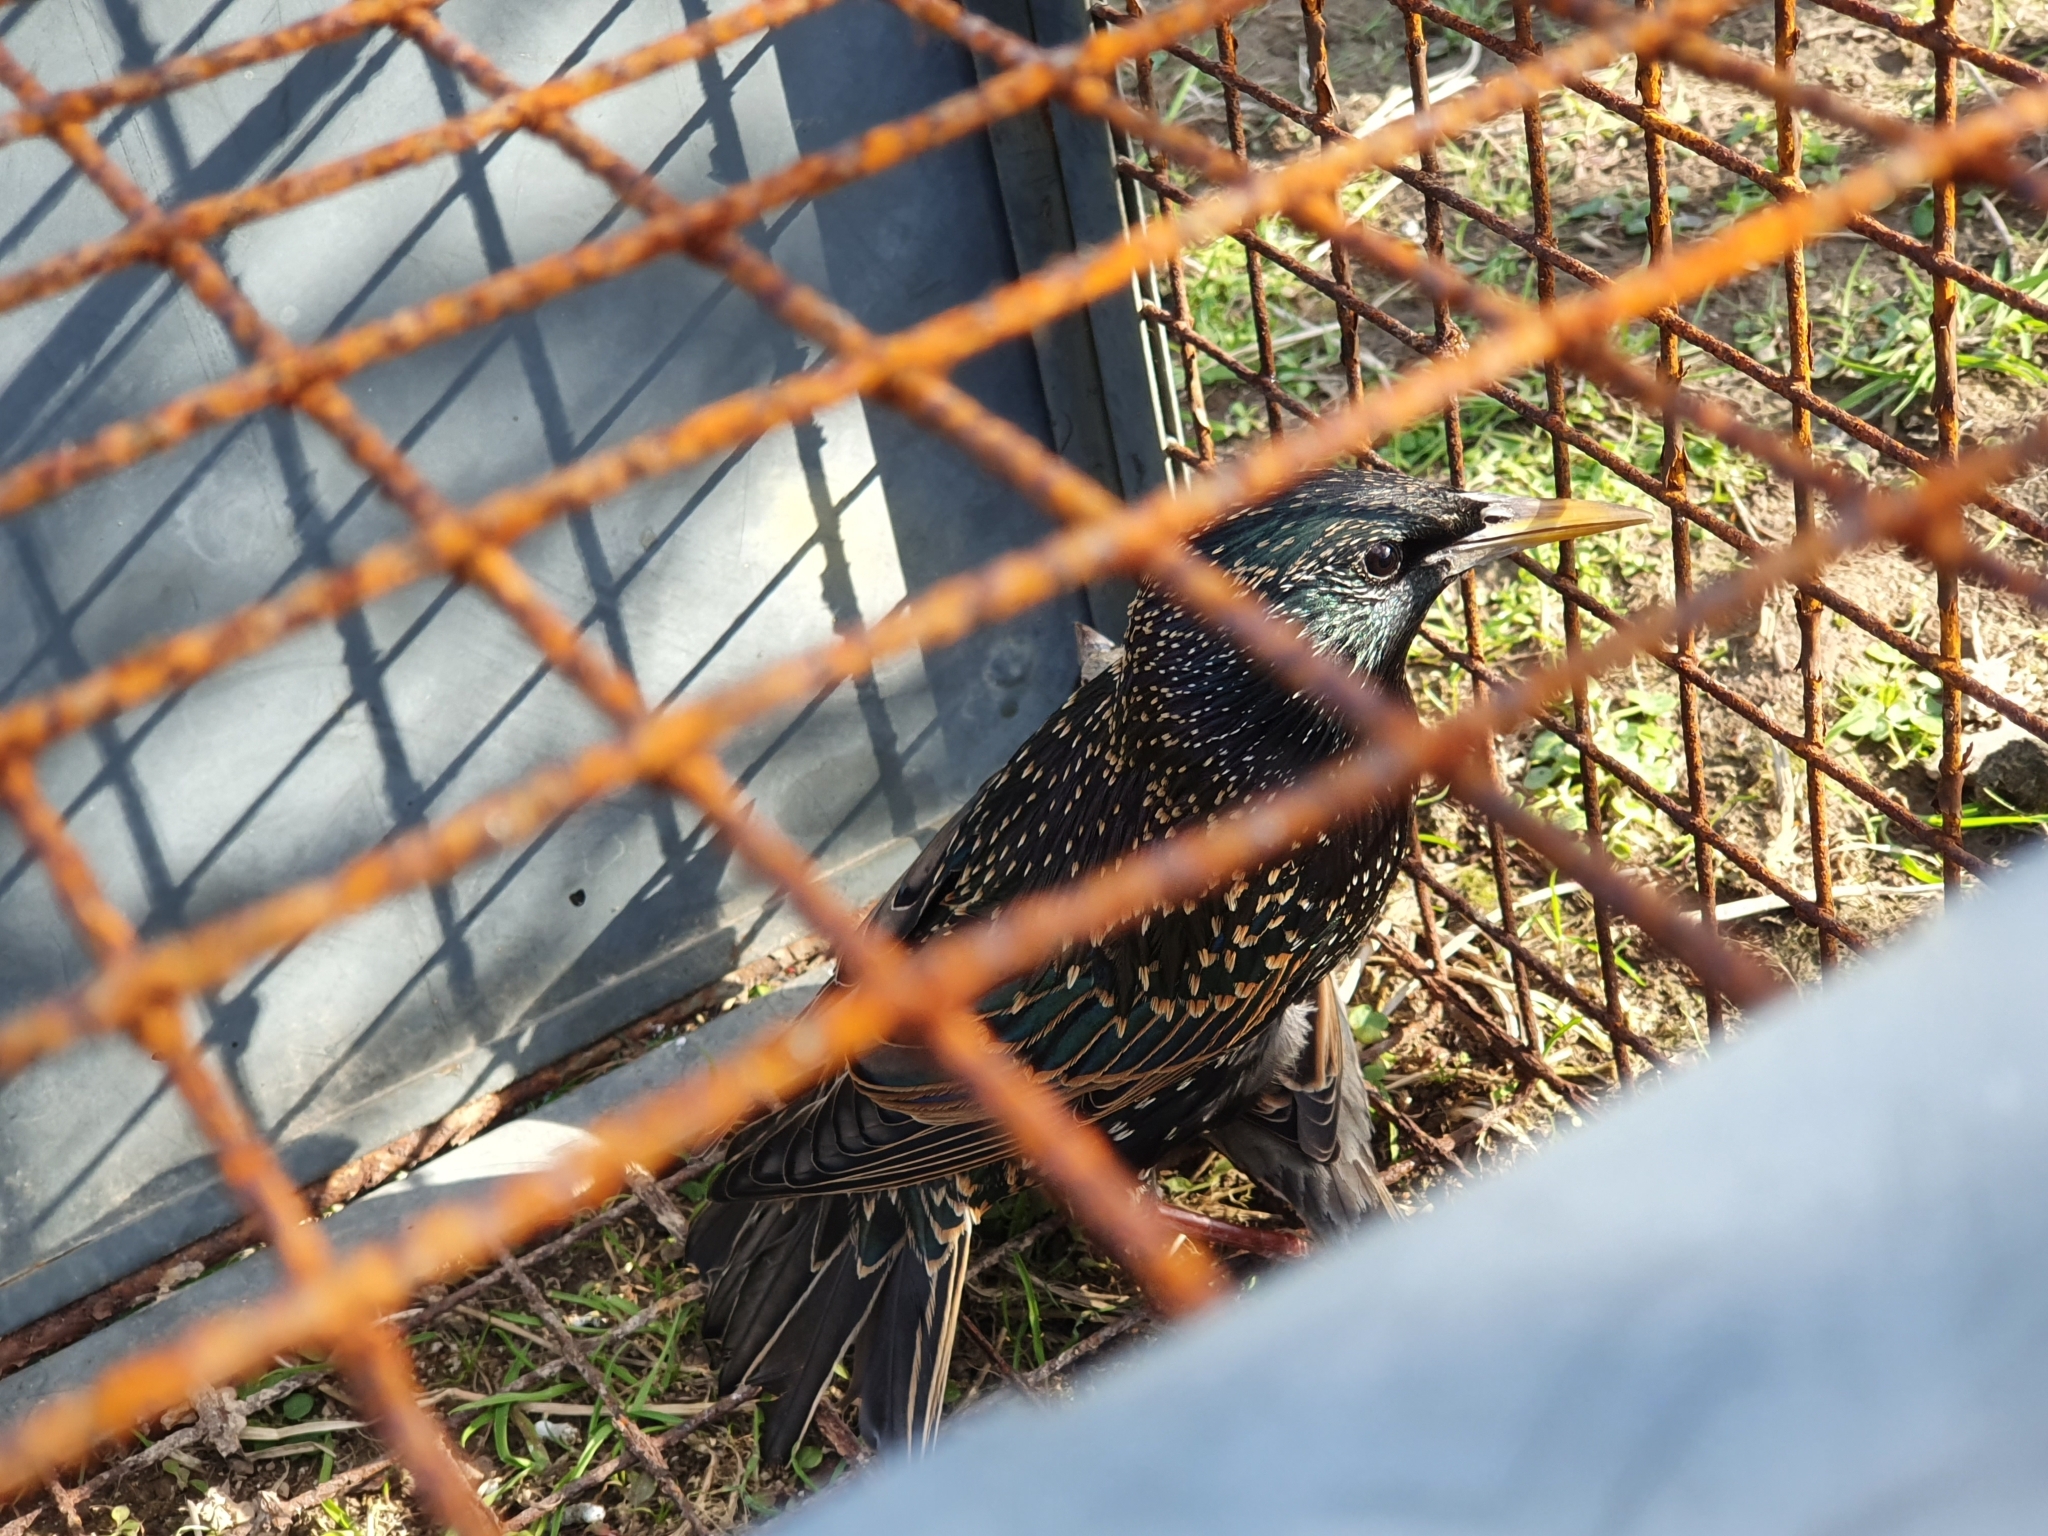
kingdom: Animalia
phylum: Chordata
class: Aves
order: Passeriformes
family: Sturnidae
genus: Sturnus
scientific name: Sturnus vulgaris
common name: Common starling
